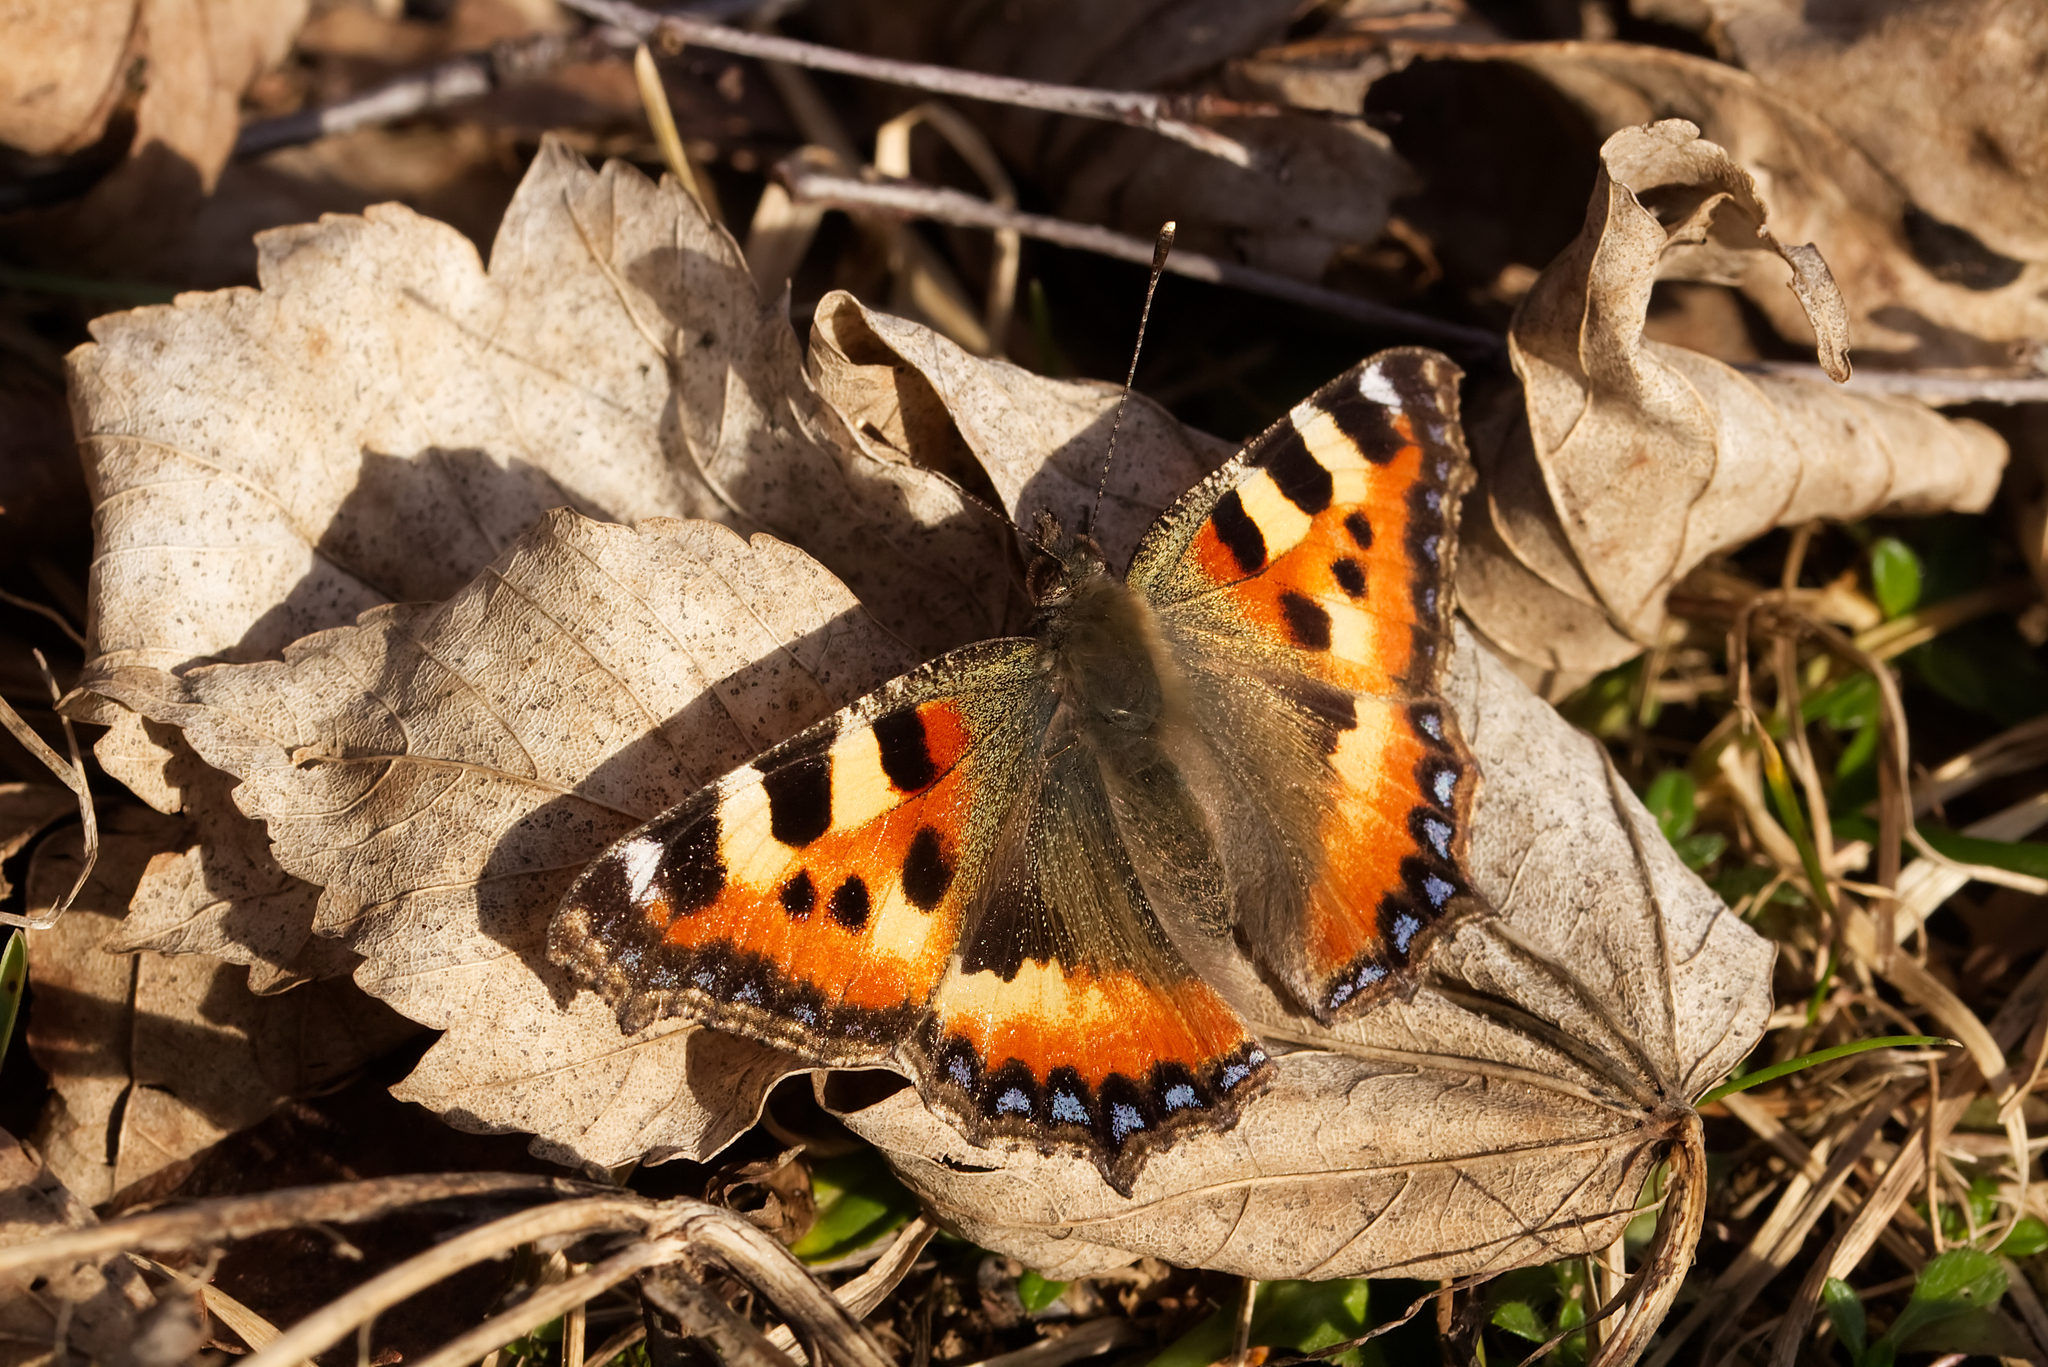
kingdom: Animalia
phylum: Arthropoda
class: Insecta
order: Lepidoptera
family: Nymphalidae
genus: Aglais
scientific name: Aglais urticae
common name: Small tortoiseshell
